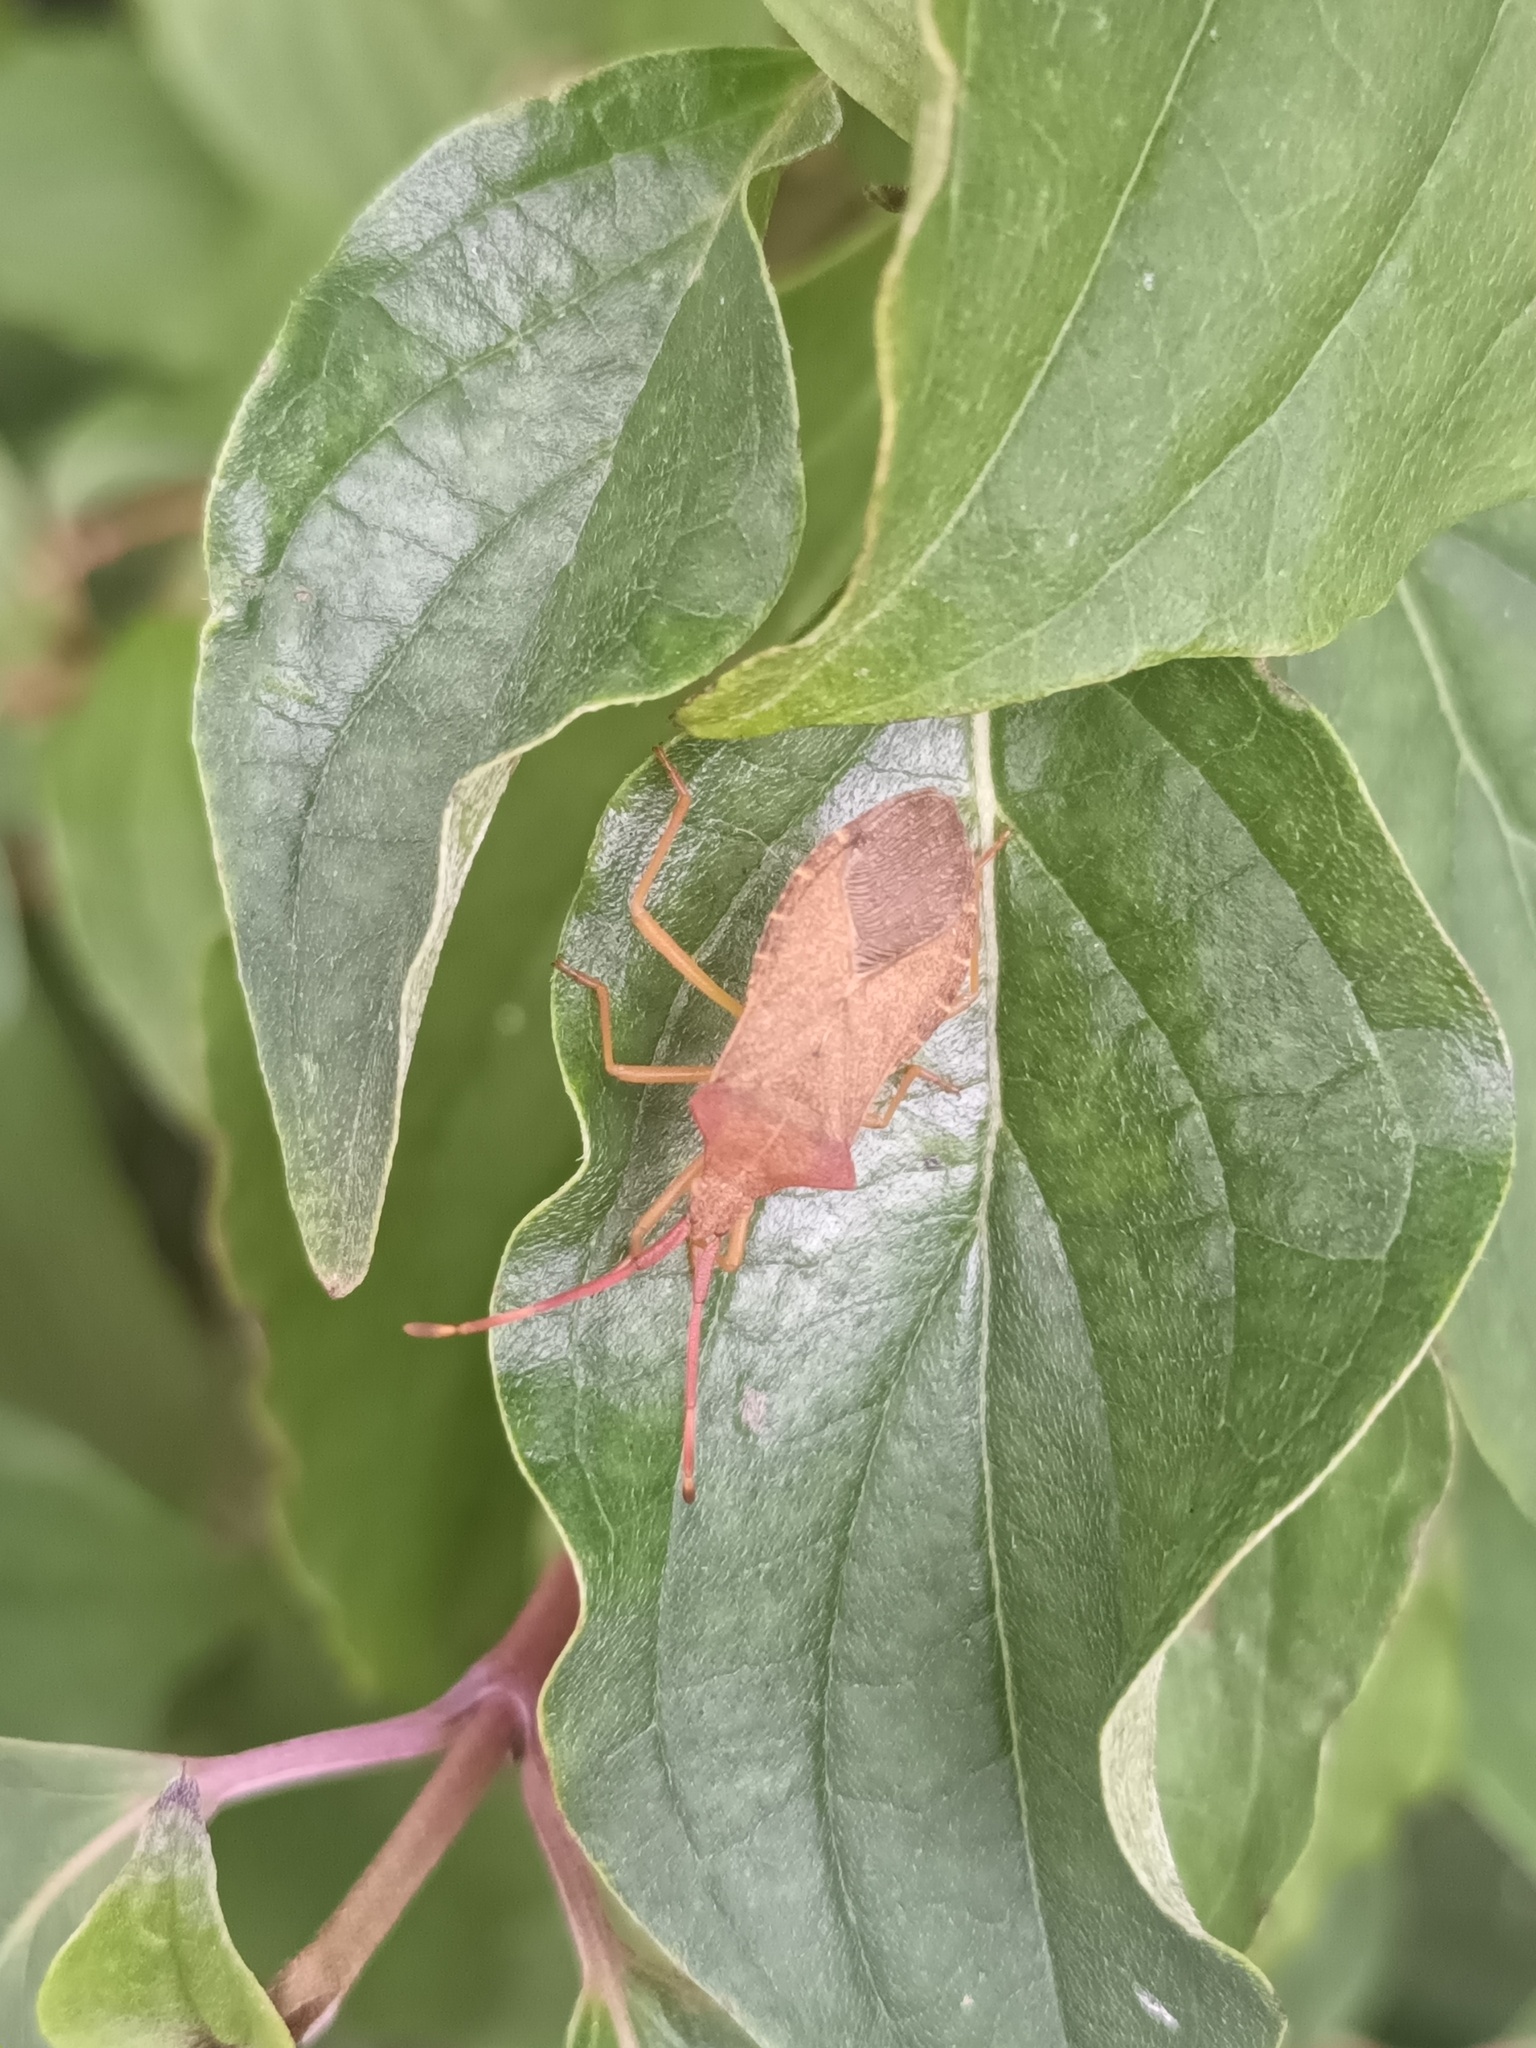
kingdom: Animalia
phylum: Arthropoda
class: Insecta
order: Hemiptera
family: Coreidae
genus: Gonocerus
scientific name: Gonocerus acuteangulatus
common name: Box bug
